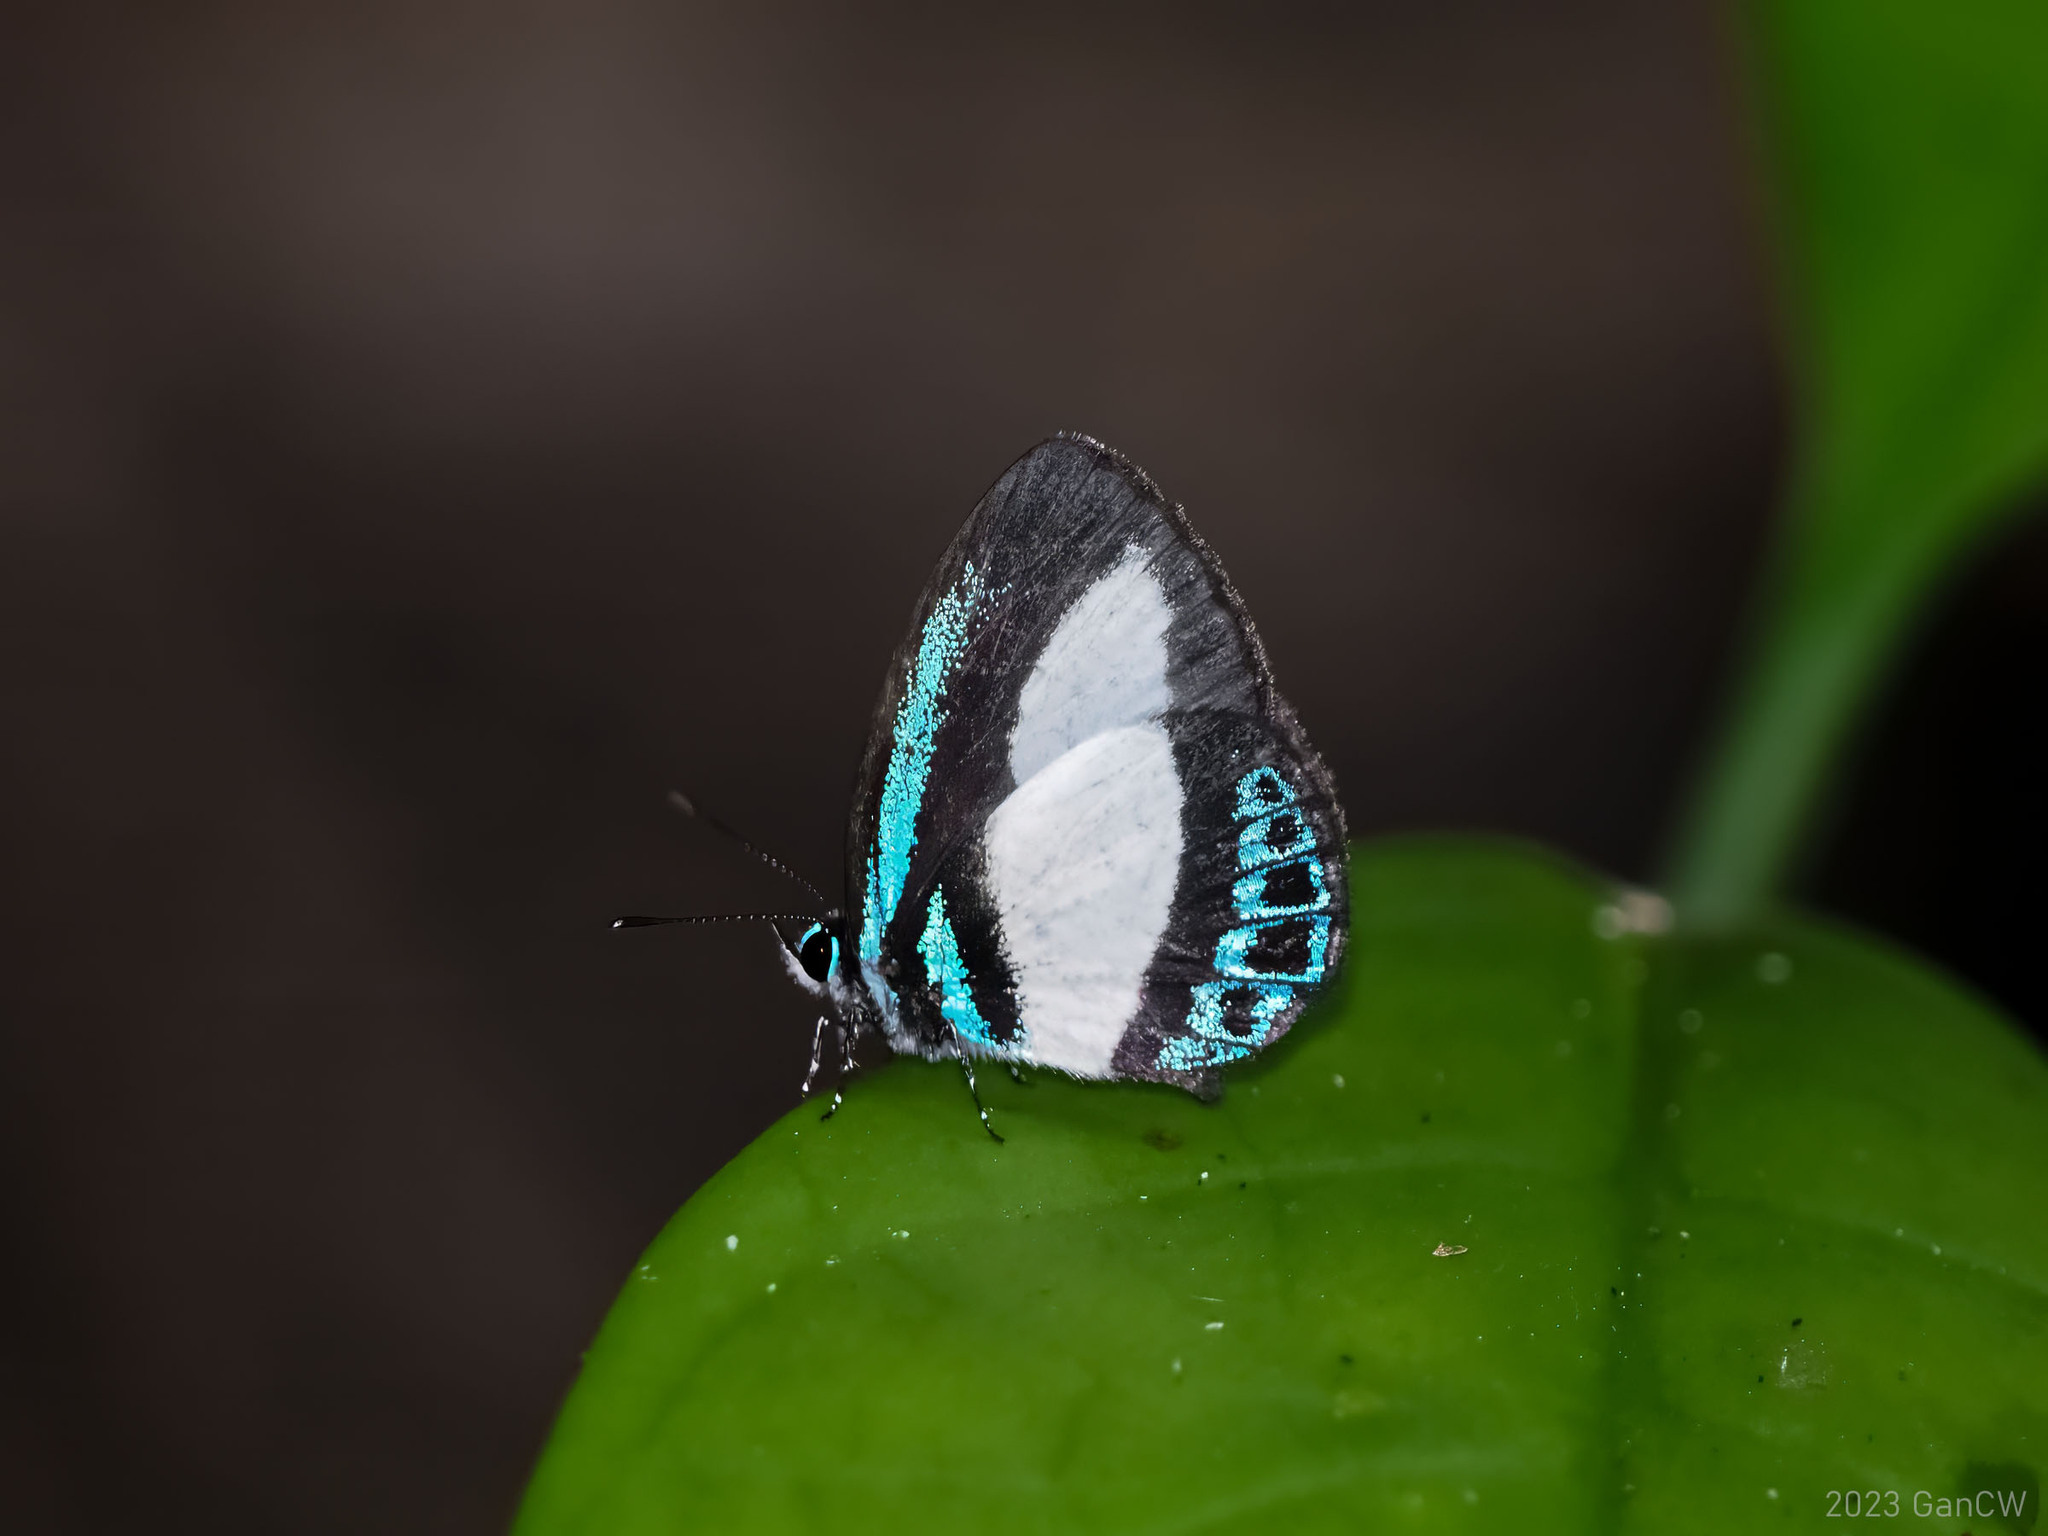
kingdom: Animalia
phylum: Arthropoda
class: Insecta
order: Lepidoptera
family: Lycaenidae
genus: Psychonotis
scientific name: Psychonotis caelius
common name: Small green banded blue
